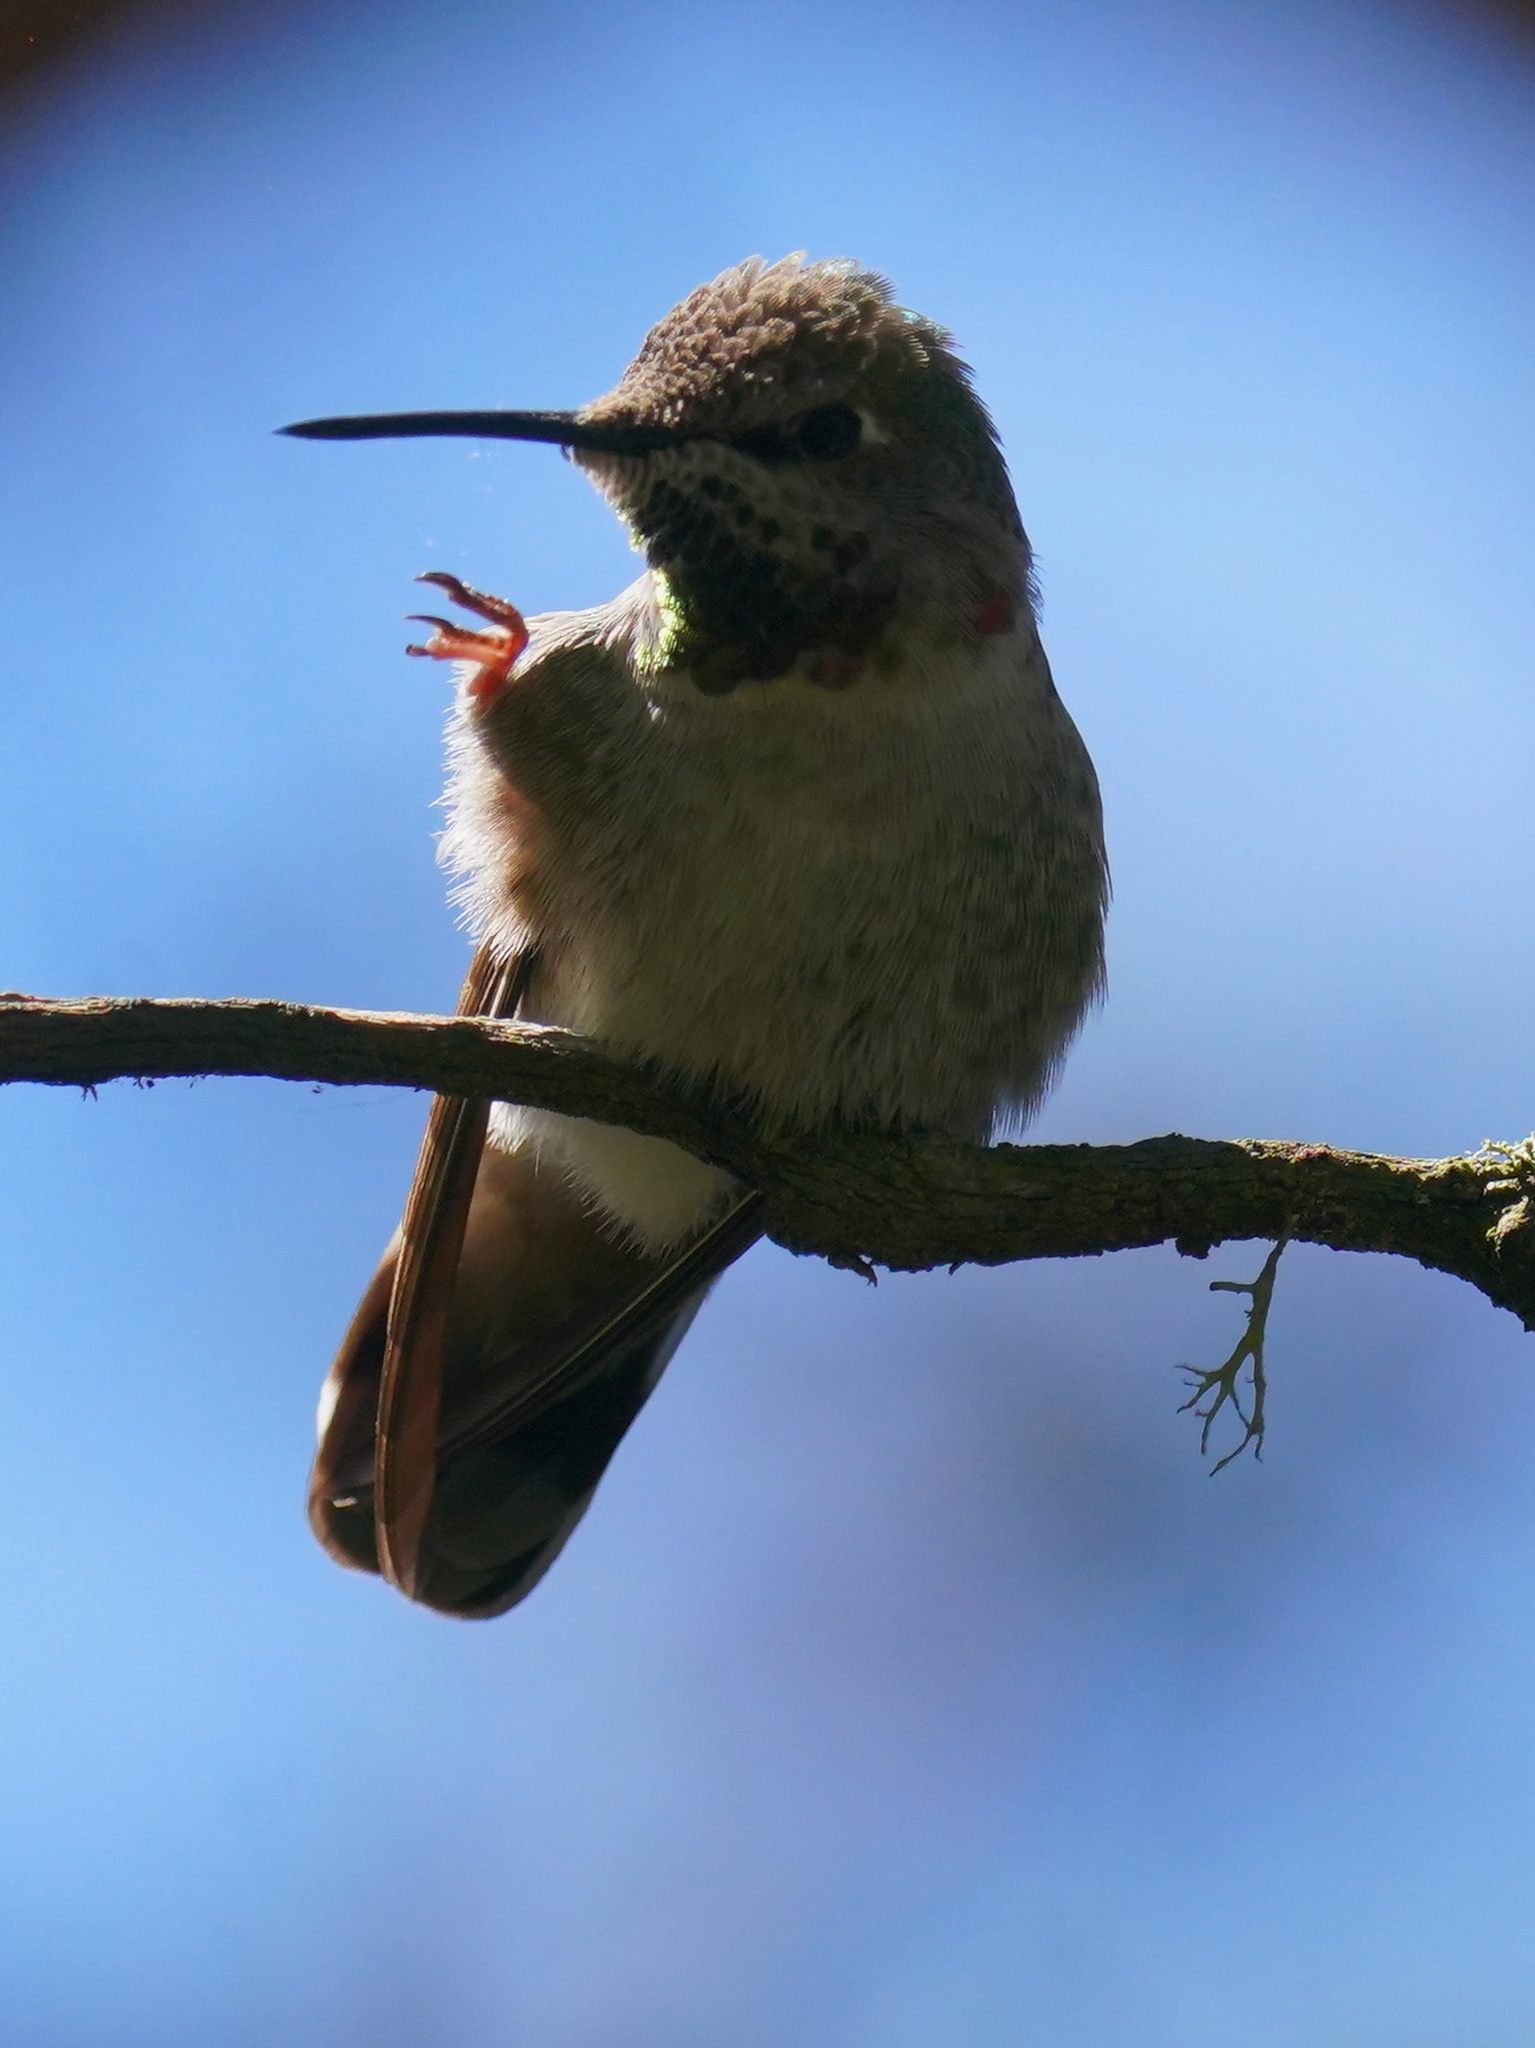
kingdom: Animalia
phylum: Chordata
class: Aves
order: Apodiformes
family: Trochilidae
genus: Calypte
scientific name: Calypte anna
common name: Anna's hummingbird
